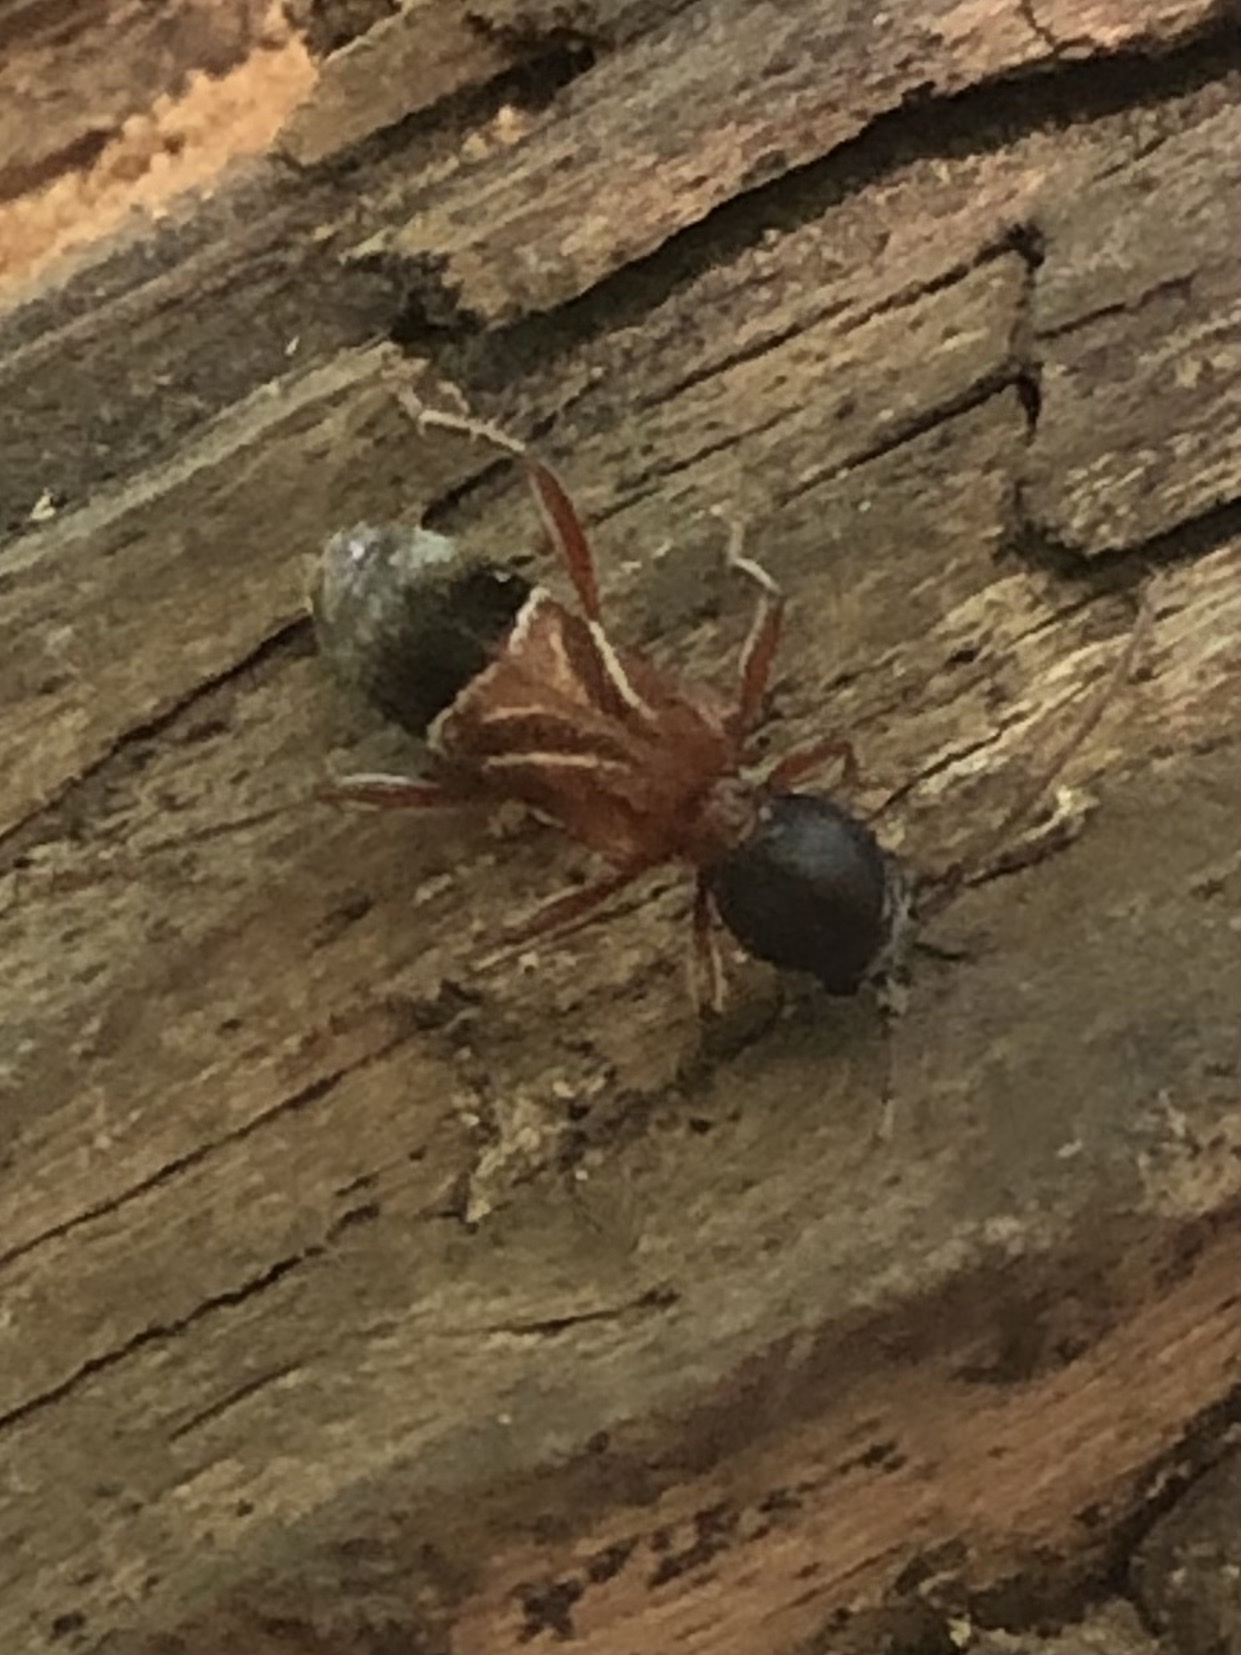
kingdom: Animalia
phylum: Arthropoda
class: Insecta
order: Coleoptera
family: Cerambycidae
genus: Cyrtophorus
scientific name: Cyrtophorus verrucosus
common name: Ant-like longhorn beetle
